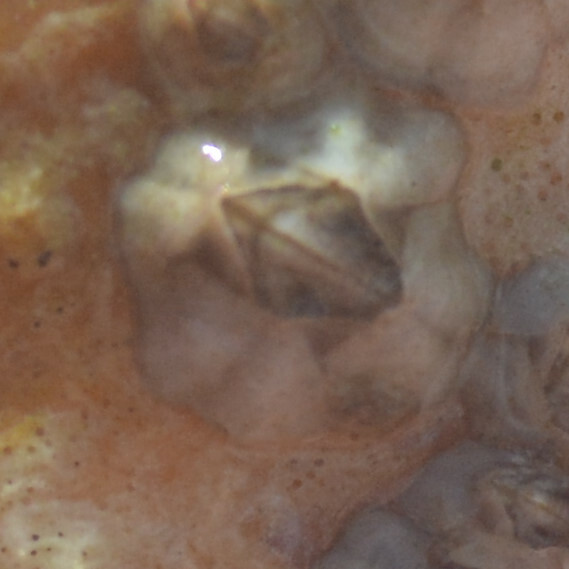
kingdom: Animalia
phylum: Arthropoda
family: Elminiidae
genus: Austrominius
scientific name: Austrominius modestus
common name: Australasian barnacle
